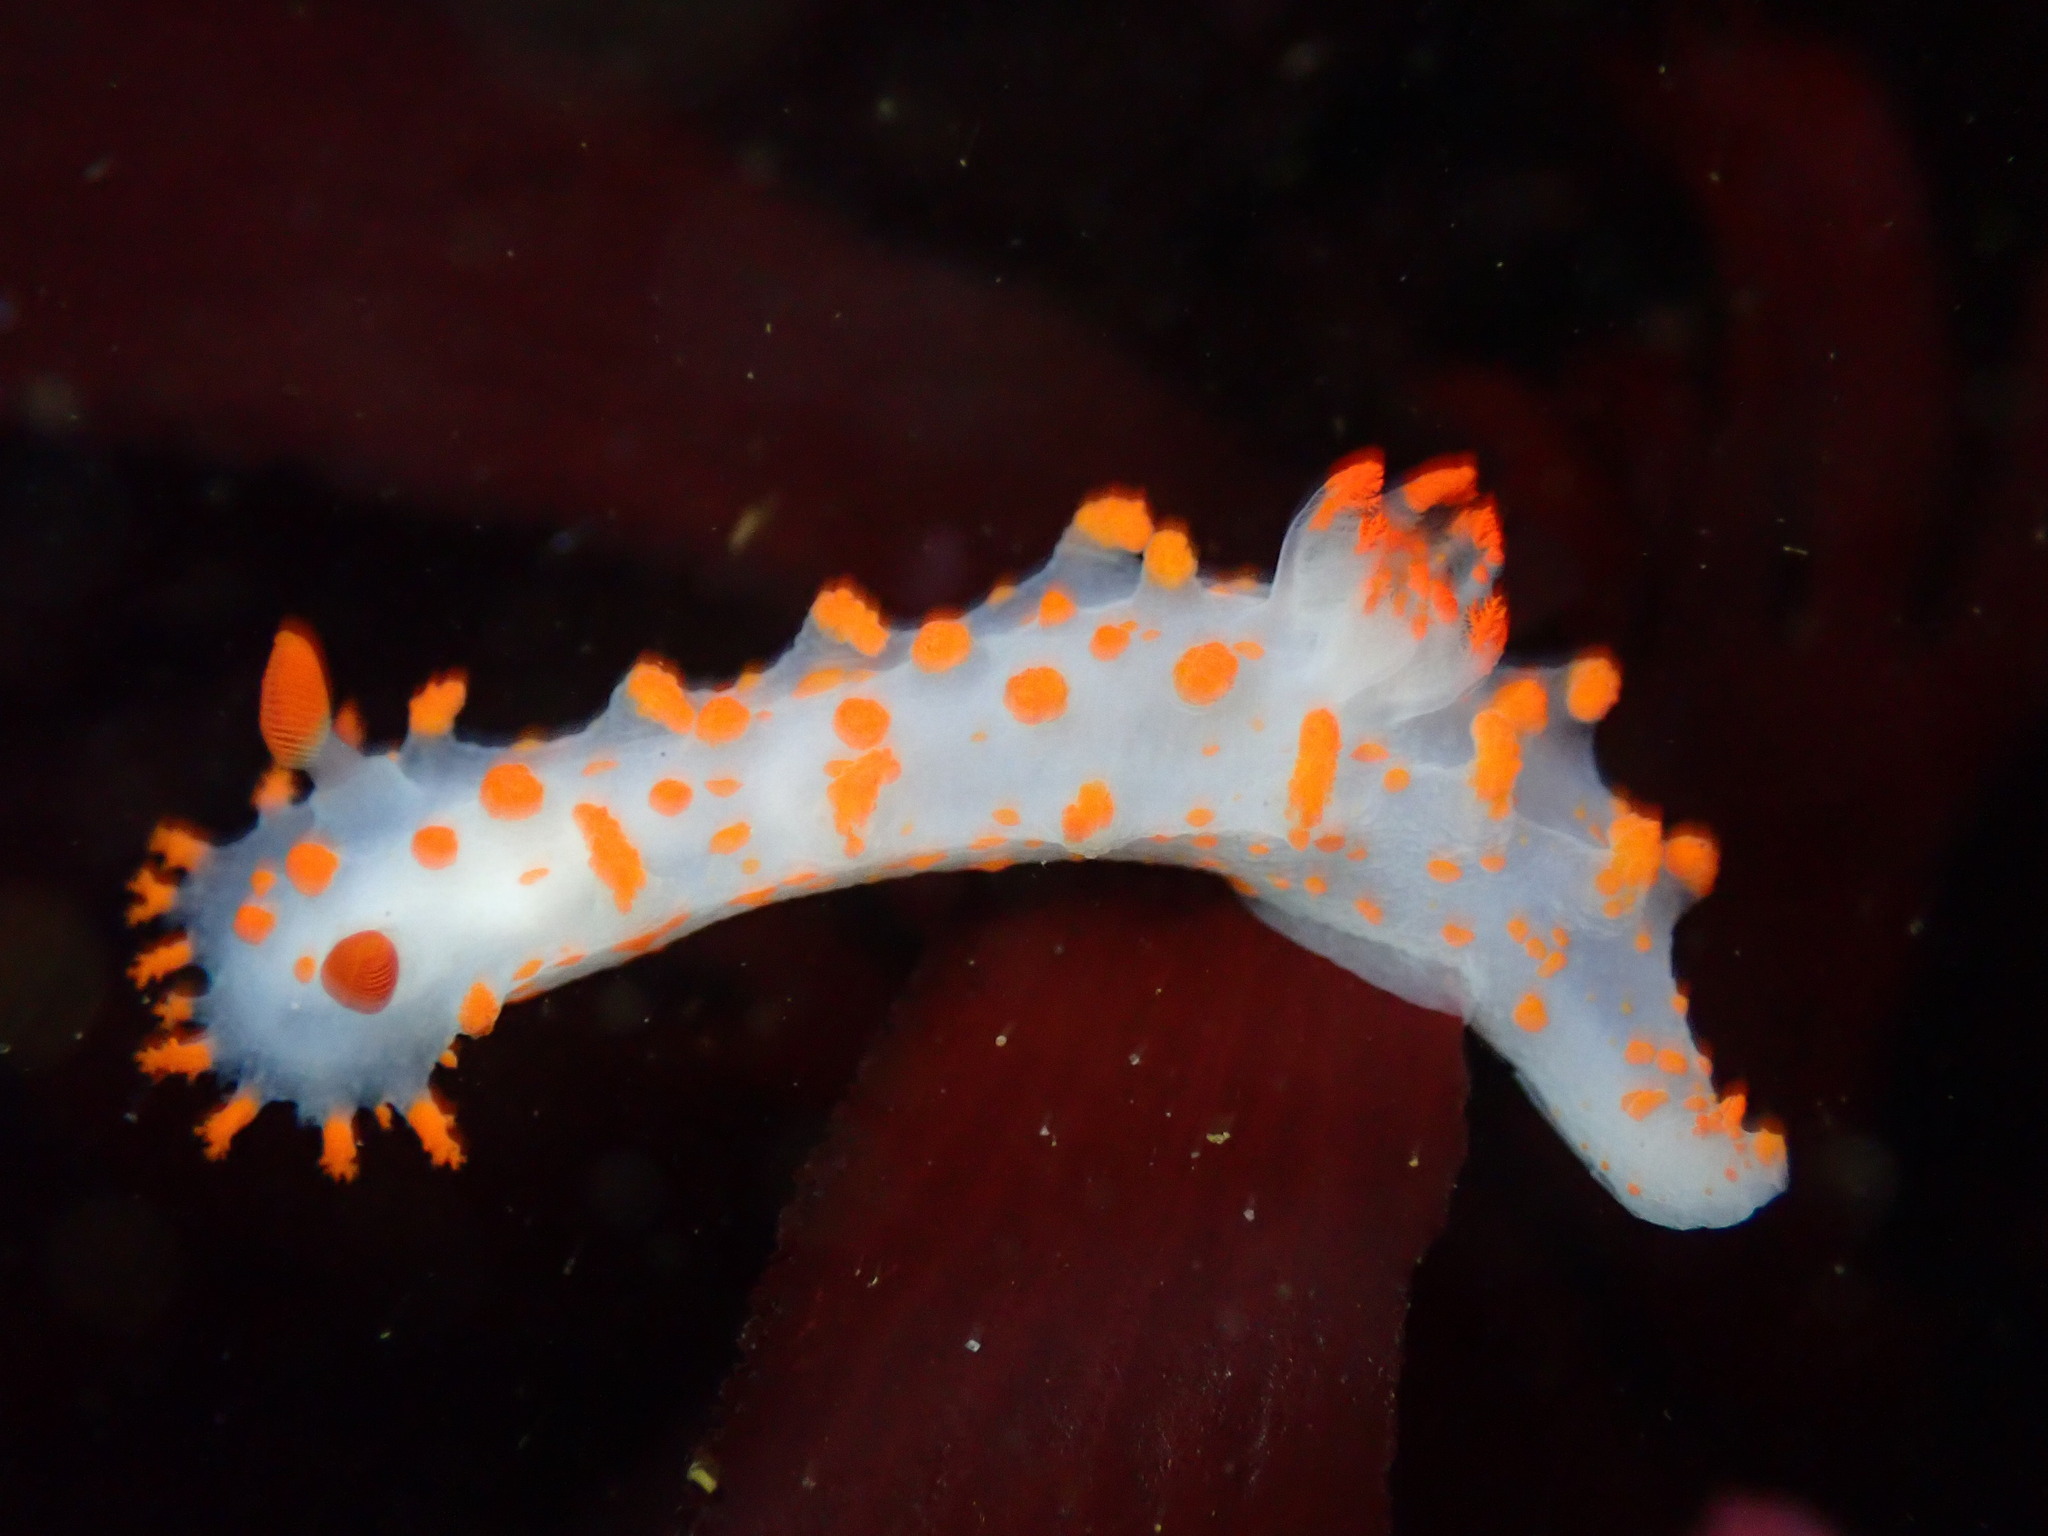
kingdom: Animalia
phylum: Mollusca
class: Gastropoda
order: Nudibranchia
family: Polyceridae
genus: Triopha
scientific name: Triopha catalinae
